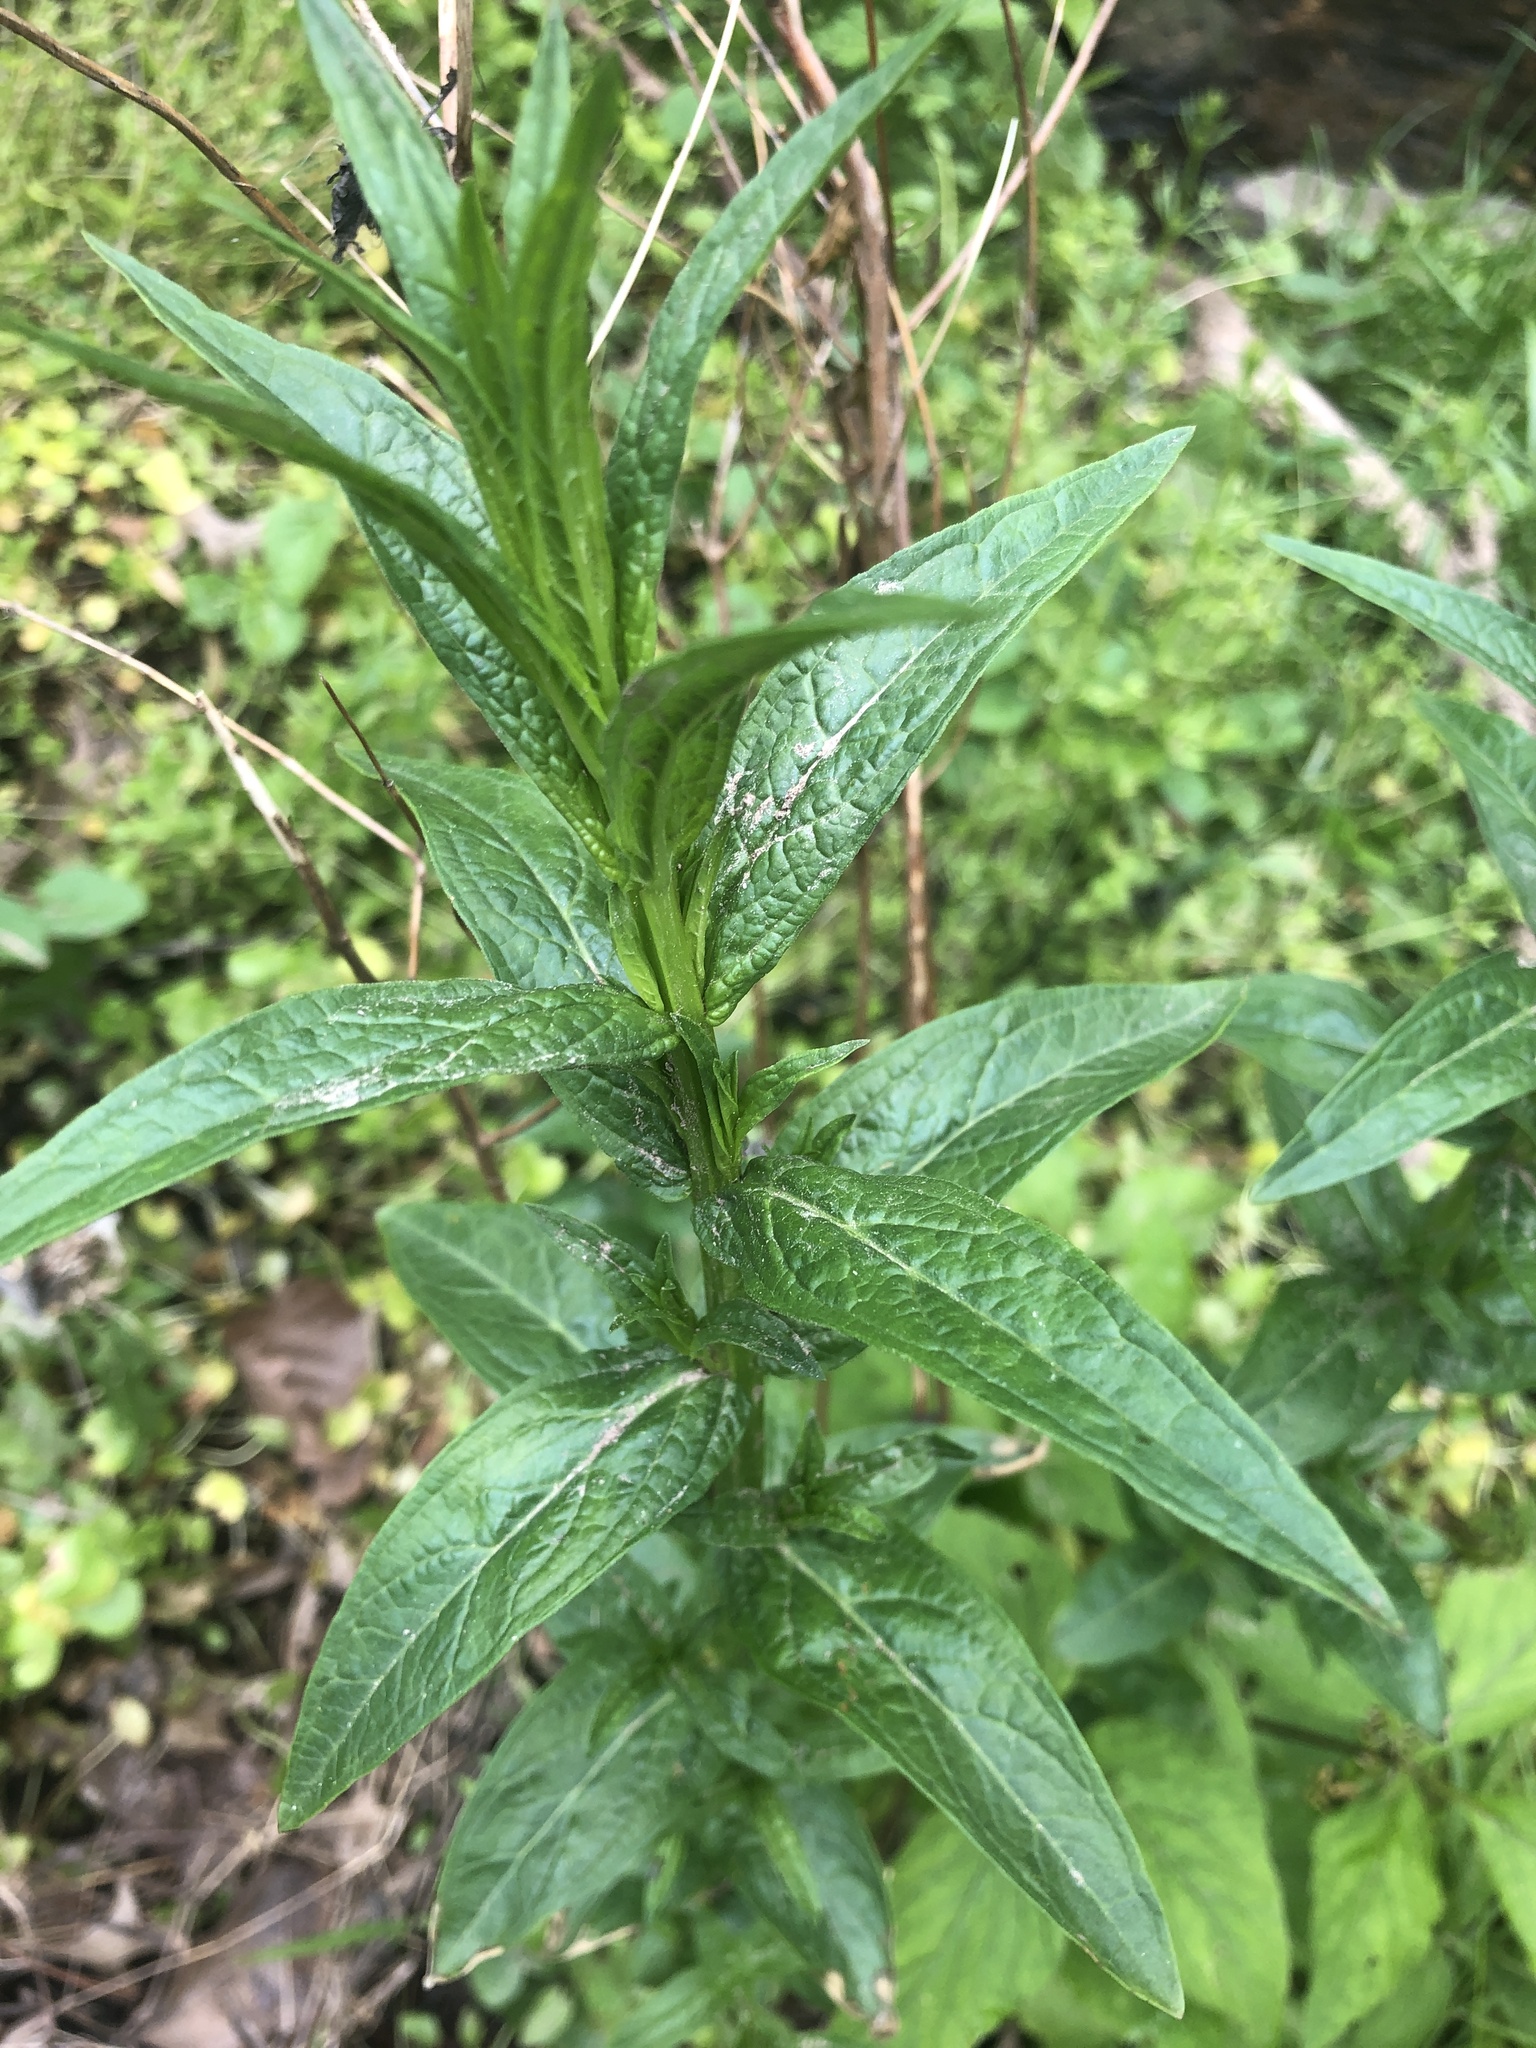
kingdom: Plantae
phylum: Tracheophyta
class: Magnoliopsida
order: Myrtales
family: Lythraceae
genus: Lythrum
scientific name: Lythrum salicaria
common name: Purple loosestrife
